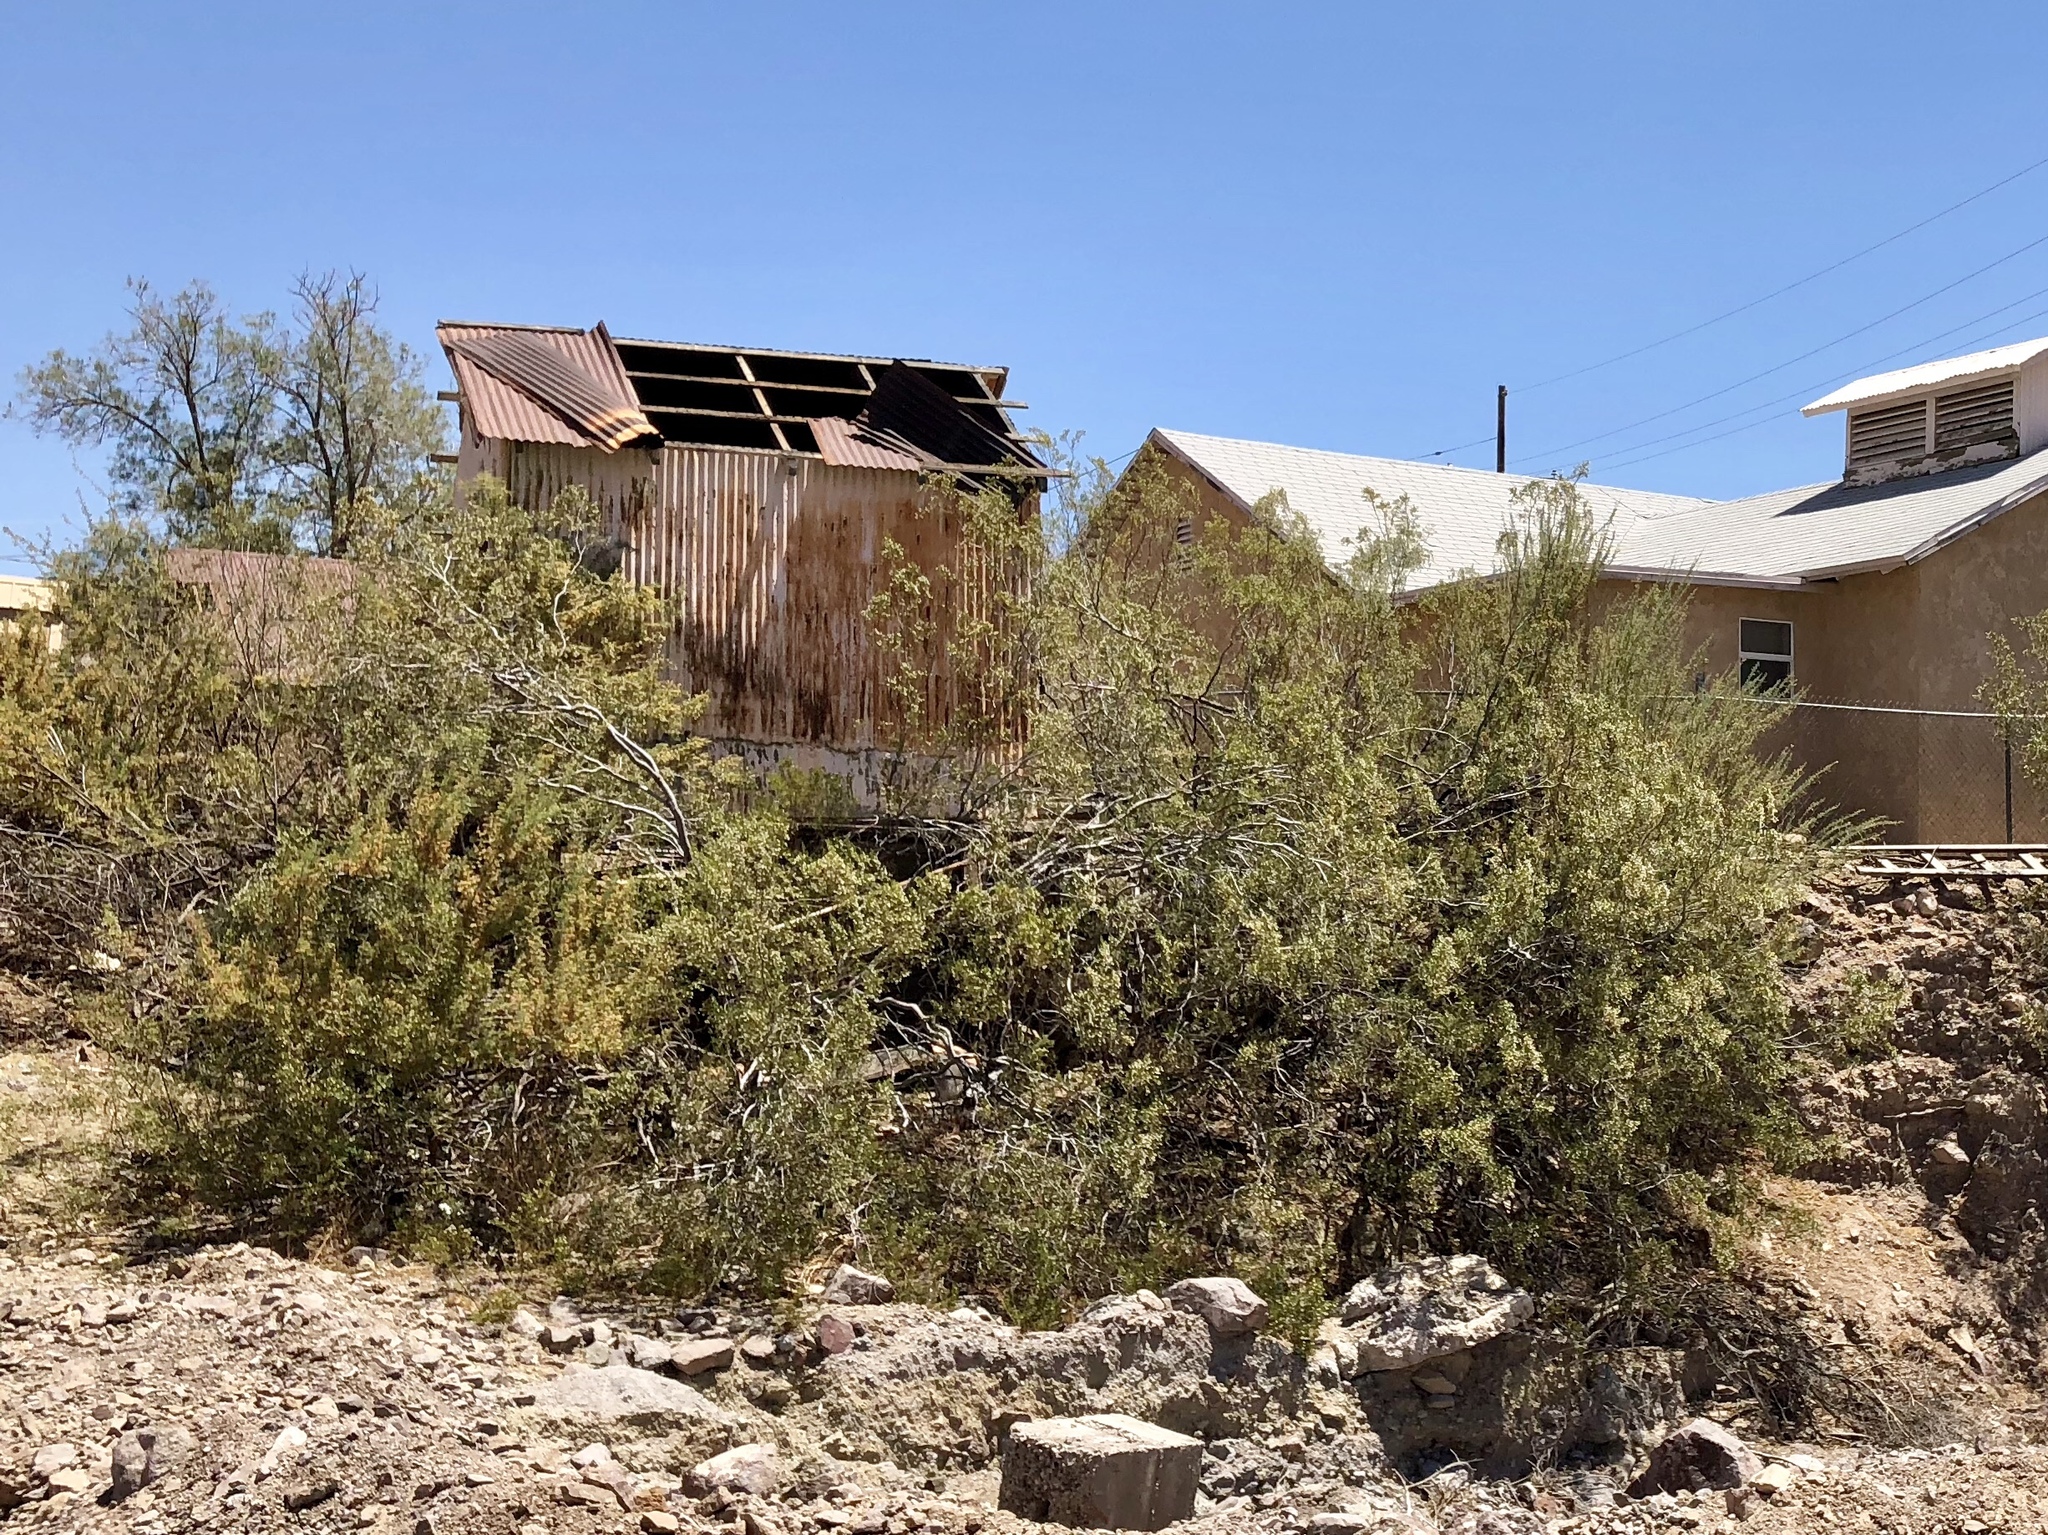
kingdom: Plantae
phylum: Tracheophyta
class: Magnoliopsida
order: Zygophyllales
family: Zygophyllaceae
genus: Larrea
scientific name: Larrea tridentata
